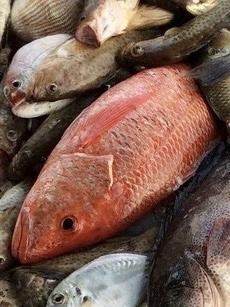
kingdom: Animalia
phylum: Chordata
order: Perciformes
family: Lutjanidae
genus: Lutjanus
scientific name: Lutjanus argentimaculatus
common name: Mangrove red snapper
